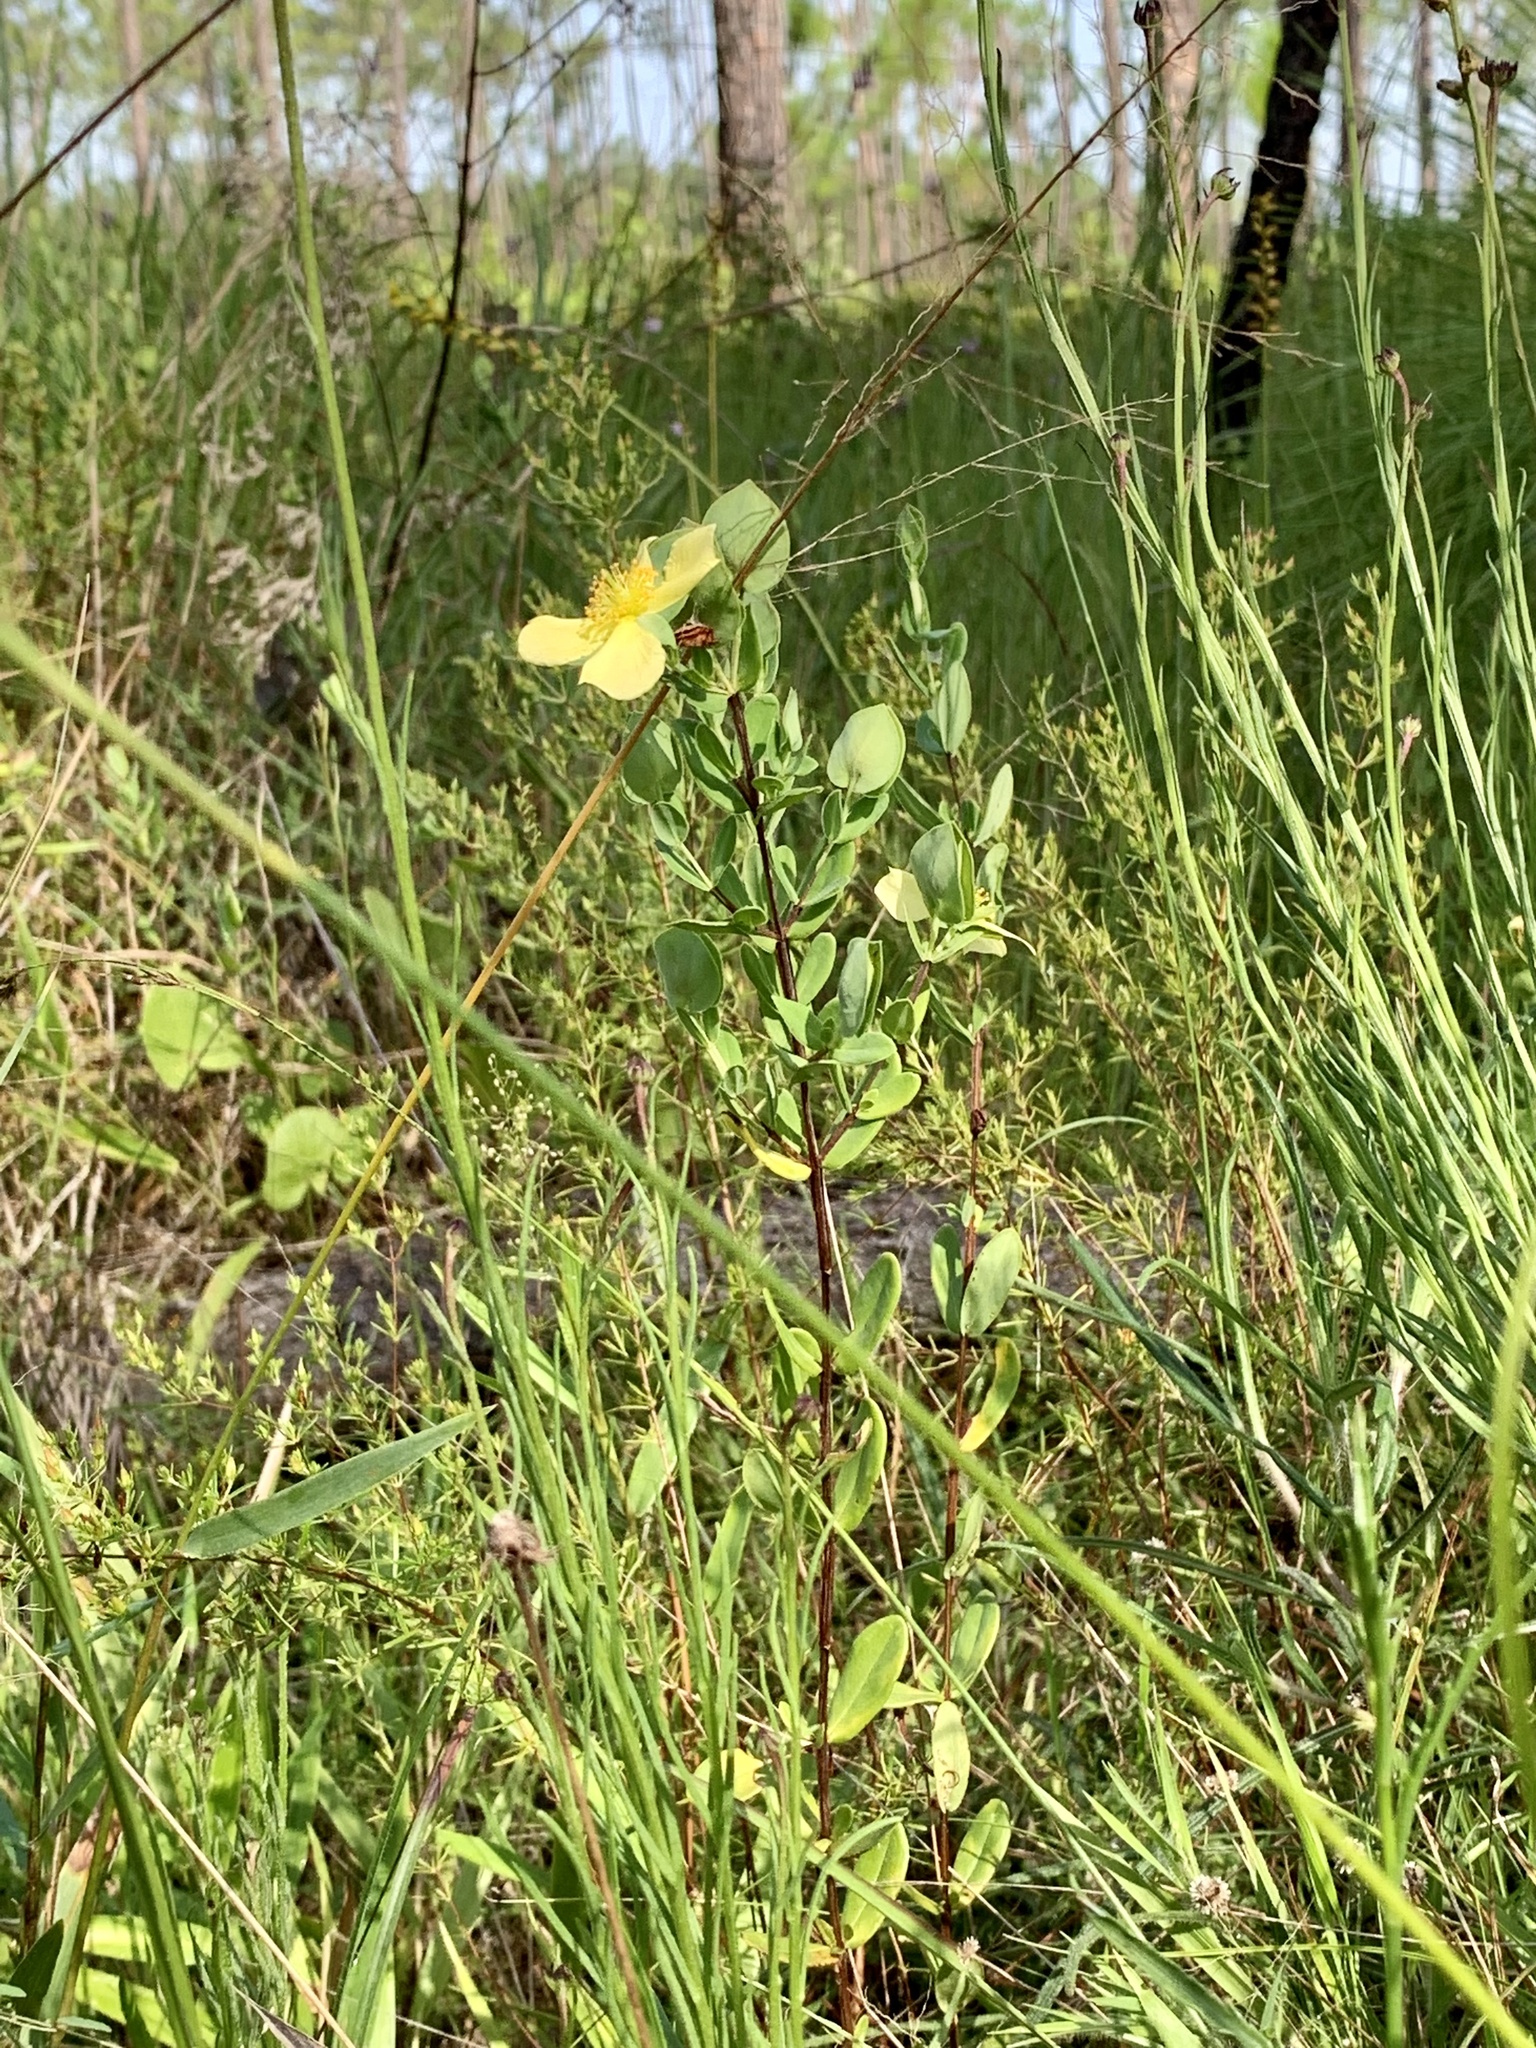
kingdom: Plantae
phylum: Tracheophyta
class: Magnoliopsida
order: Malpighiales
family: Hypericaceae
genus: Hypericum
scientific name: Hypericum crux-andreae
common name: St.-peter's-wort
